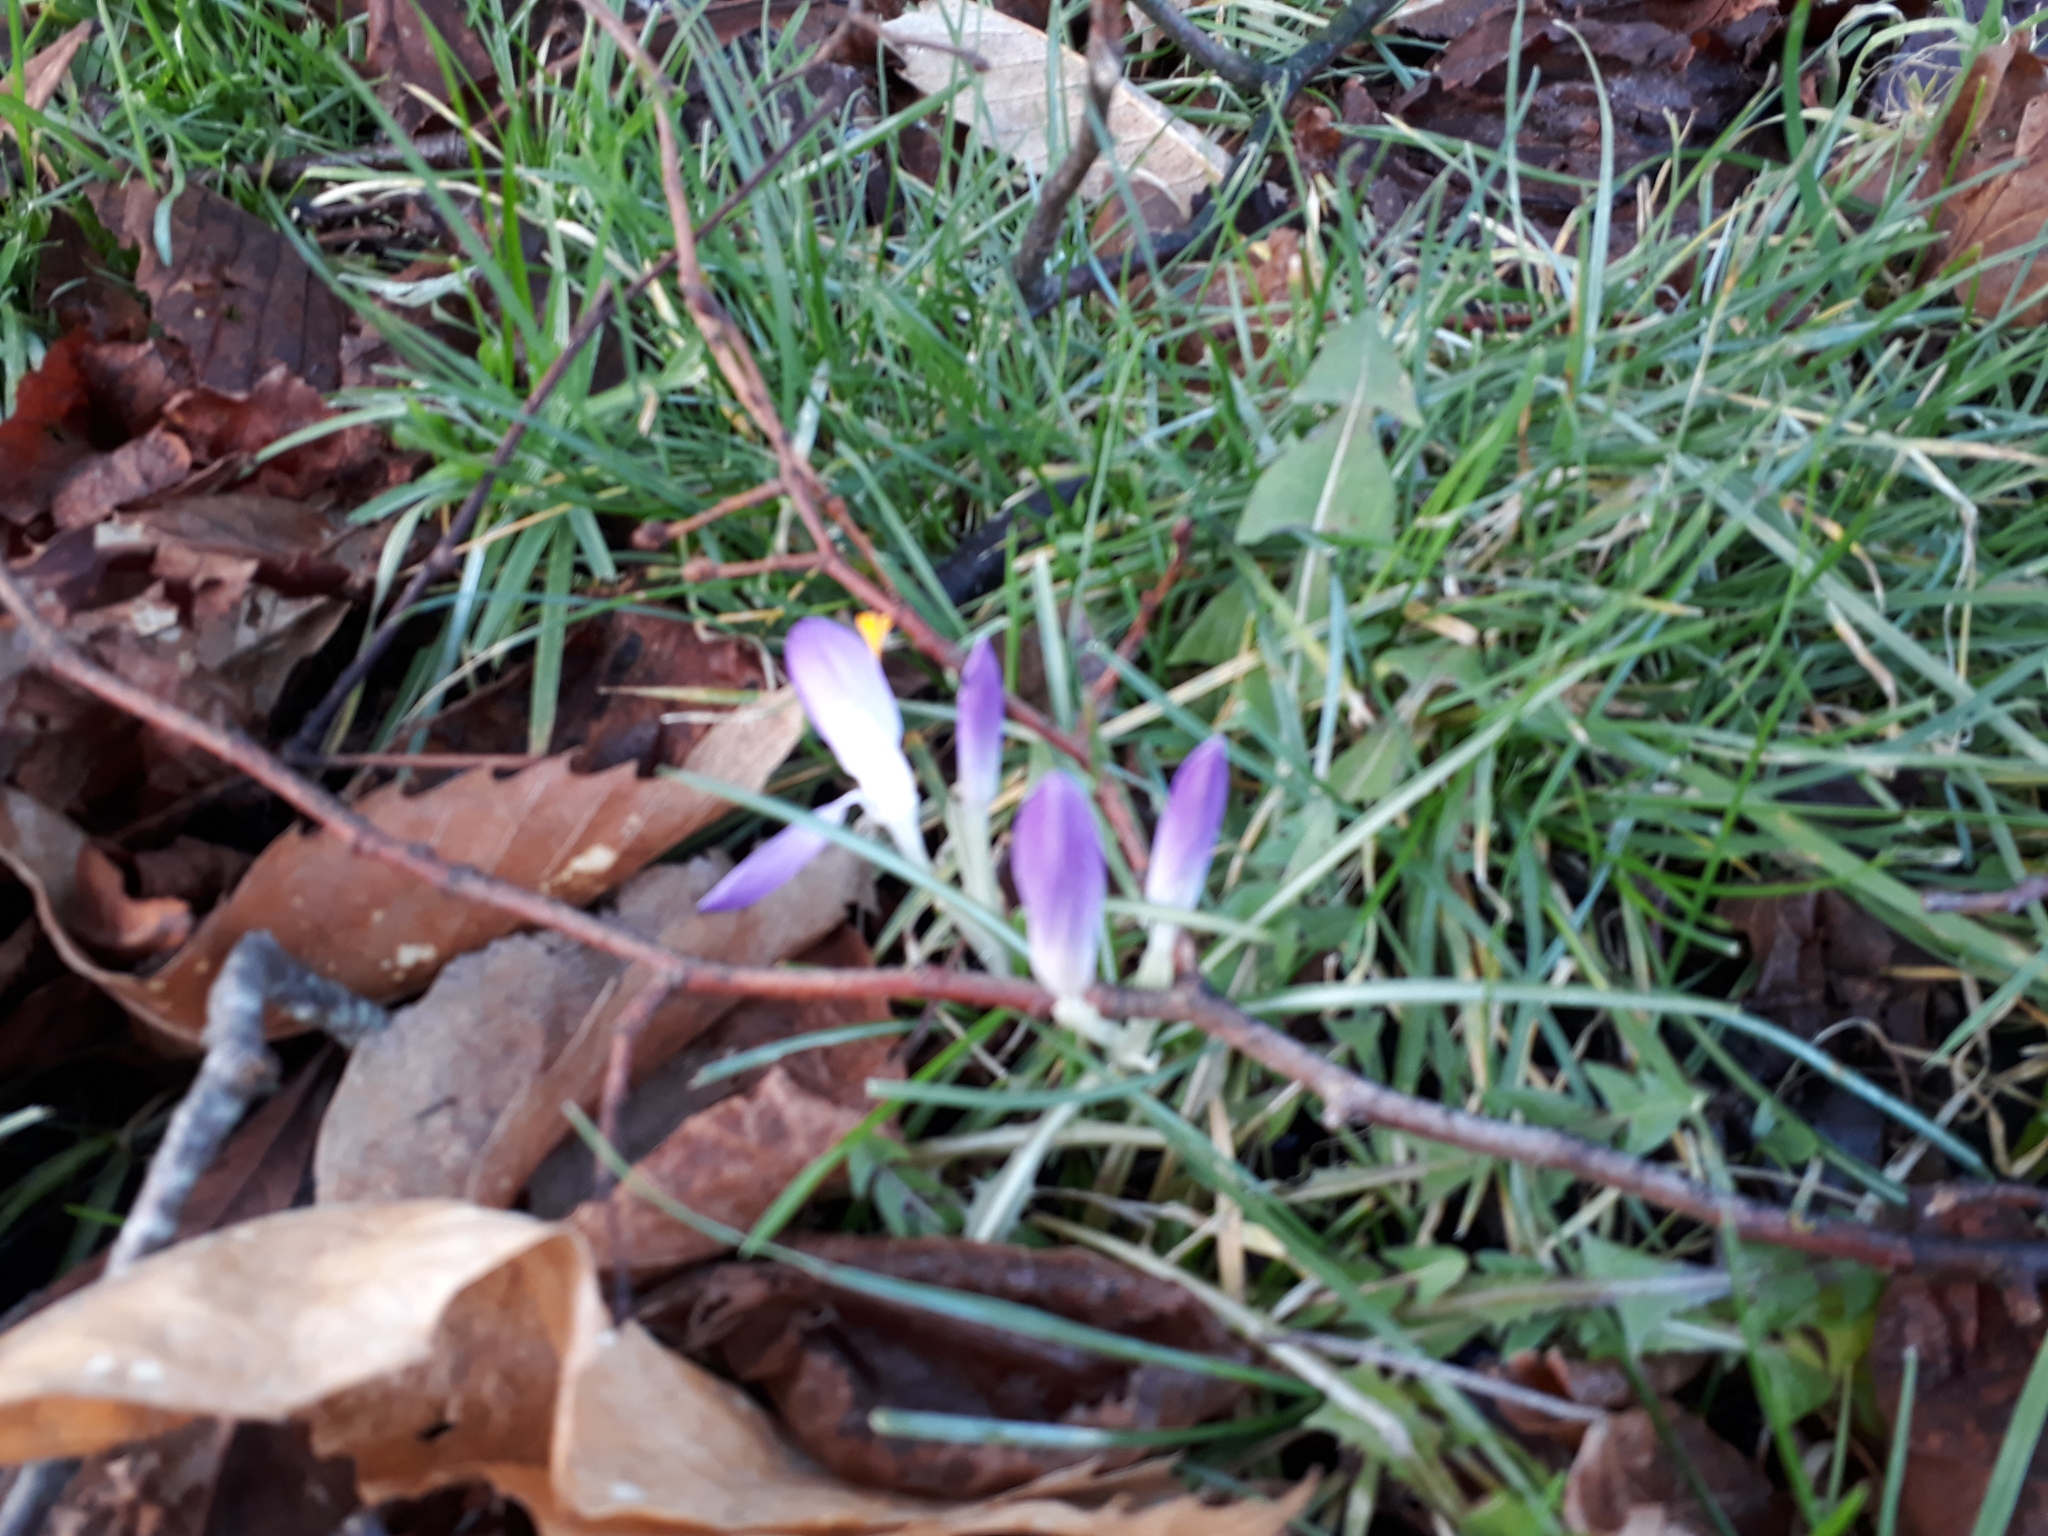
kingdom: Plantae
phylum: Tracheophyta
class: Liliopsida
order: Asparagales
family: Iridaceae
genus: Crocus
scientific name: Crocus tommasinianus
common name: Early crocus
